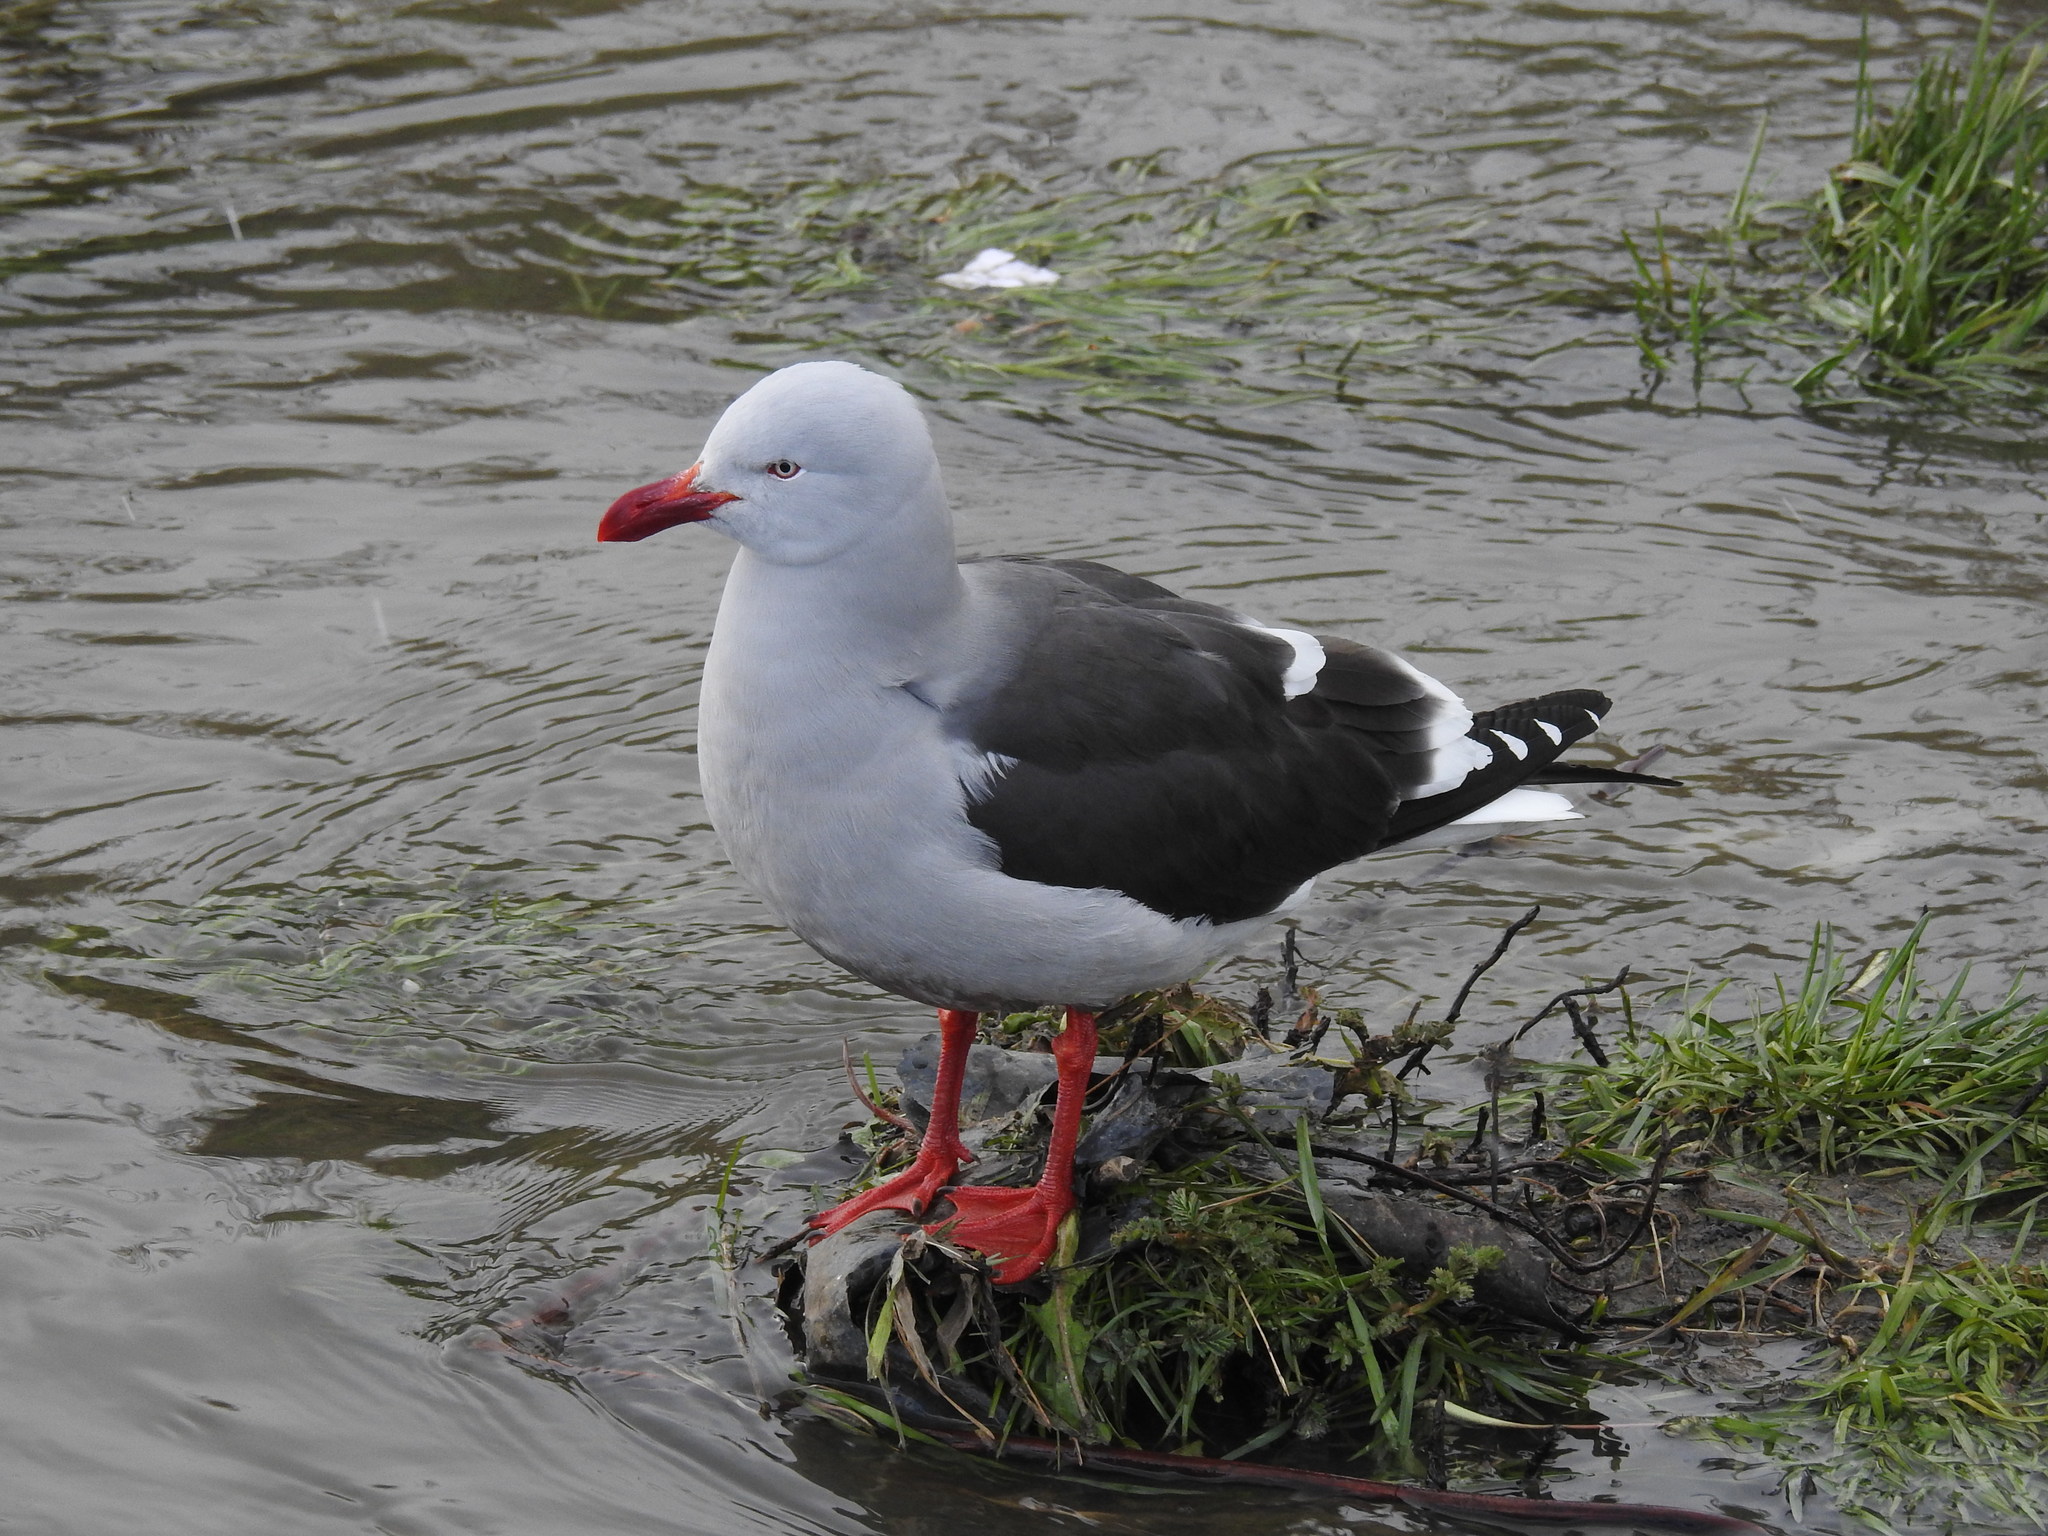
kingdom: Animalia
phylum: Chordata
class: Aves
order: Charadriiformes
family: Laridae
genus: Leucophaeus
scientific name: Leucophaeus scoresbii
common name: Dolphin gull
